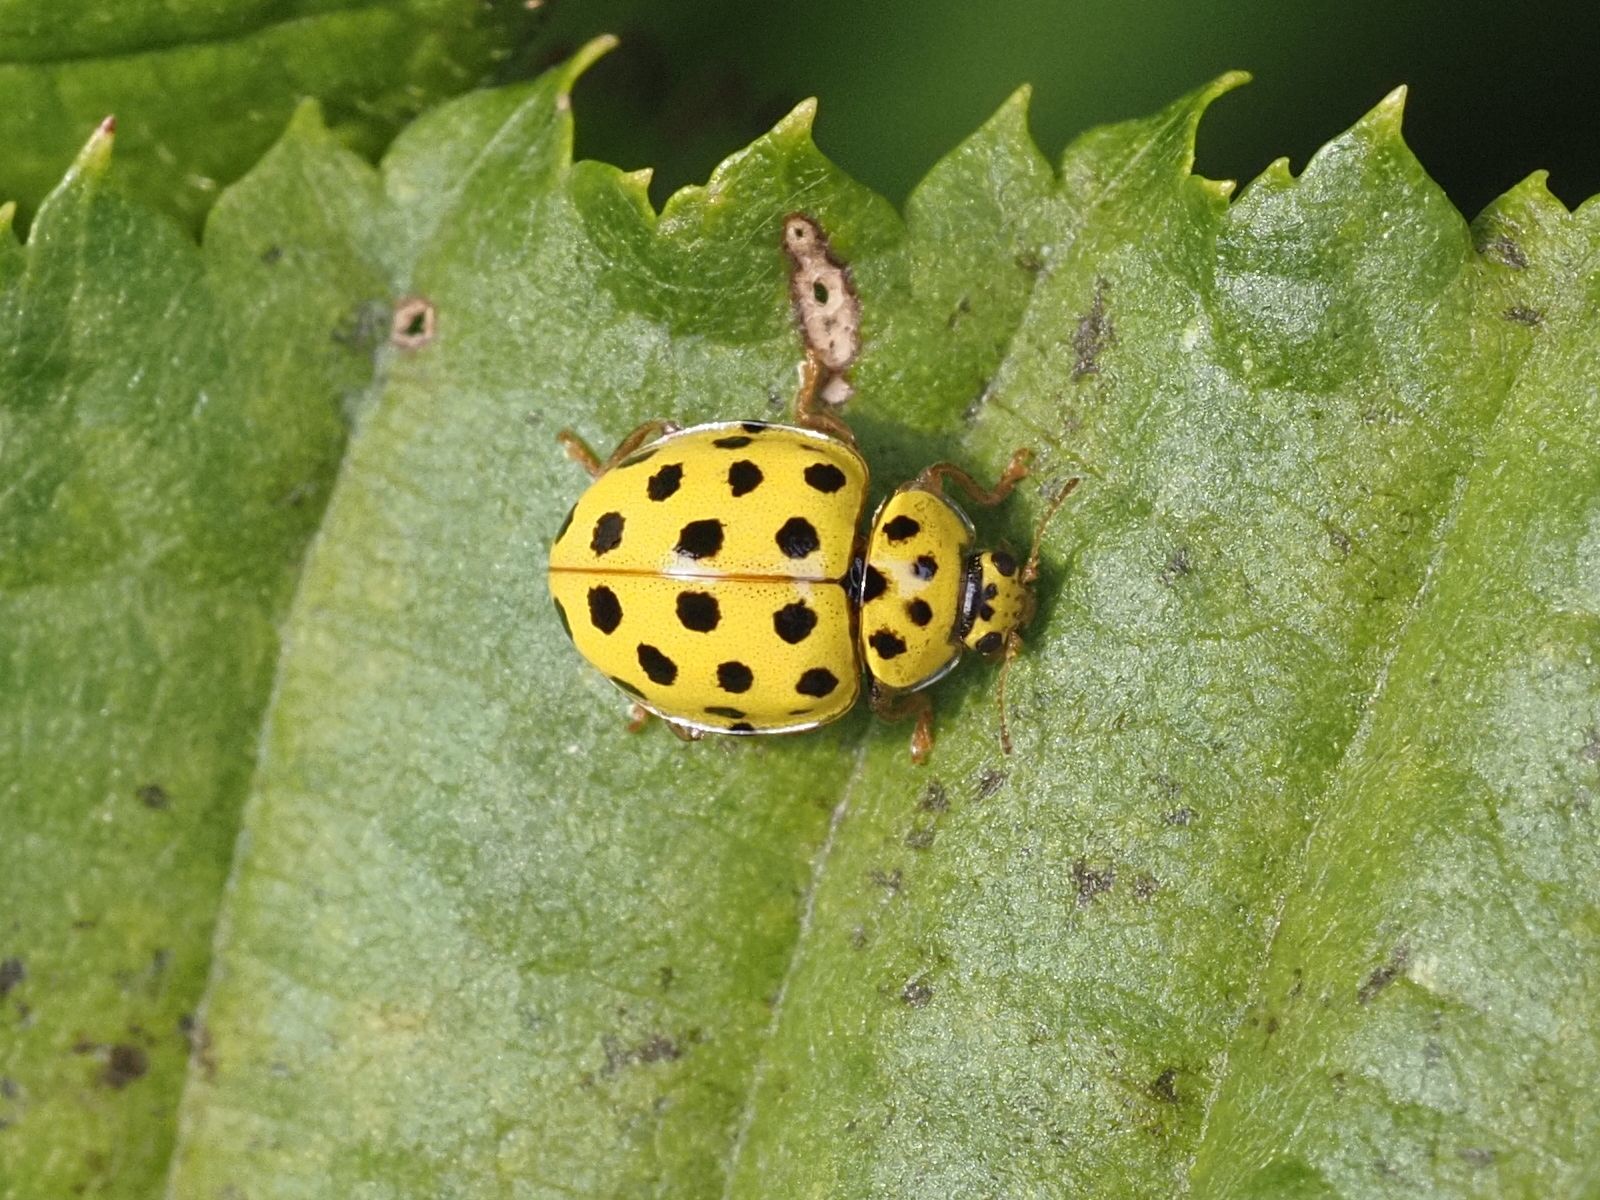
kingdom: Animalia
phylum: Arthropoda
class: Insecta
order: Coleoptera
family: Coccinellidae
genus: Psyllobora
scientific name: Psyllobora vigintiduopunctata
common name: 22-spot ladybird
